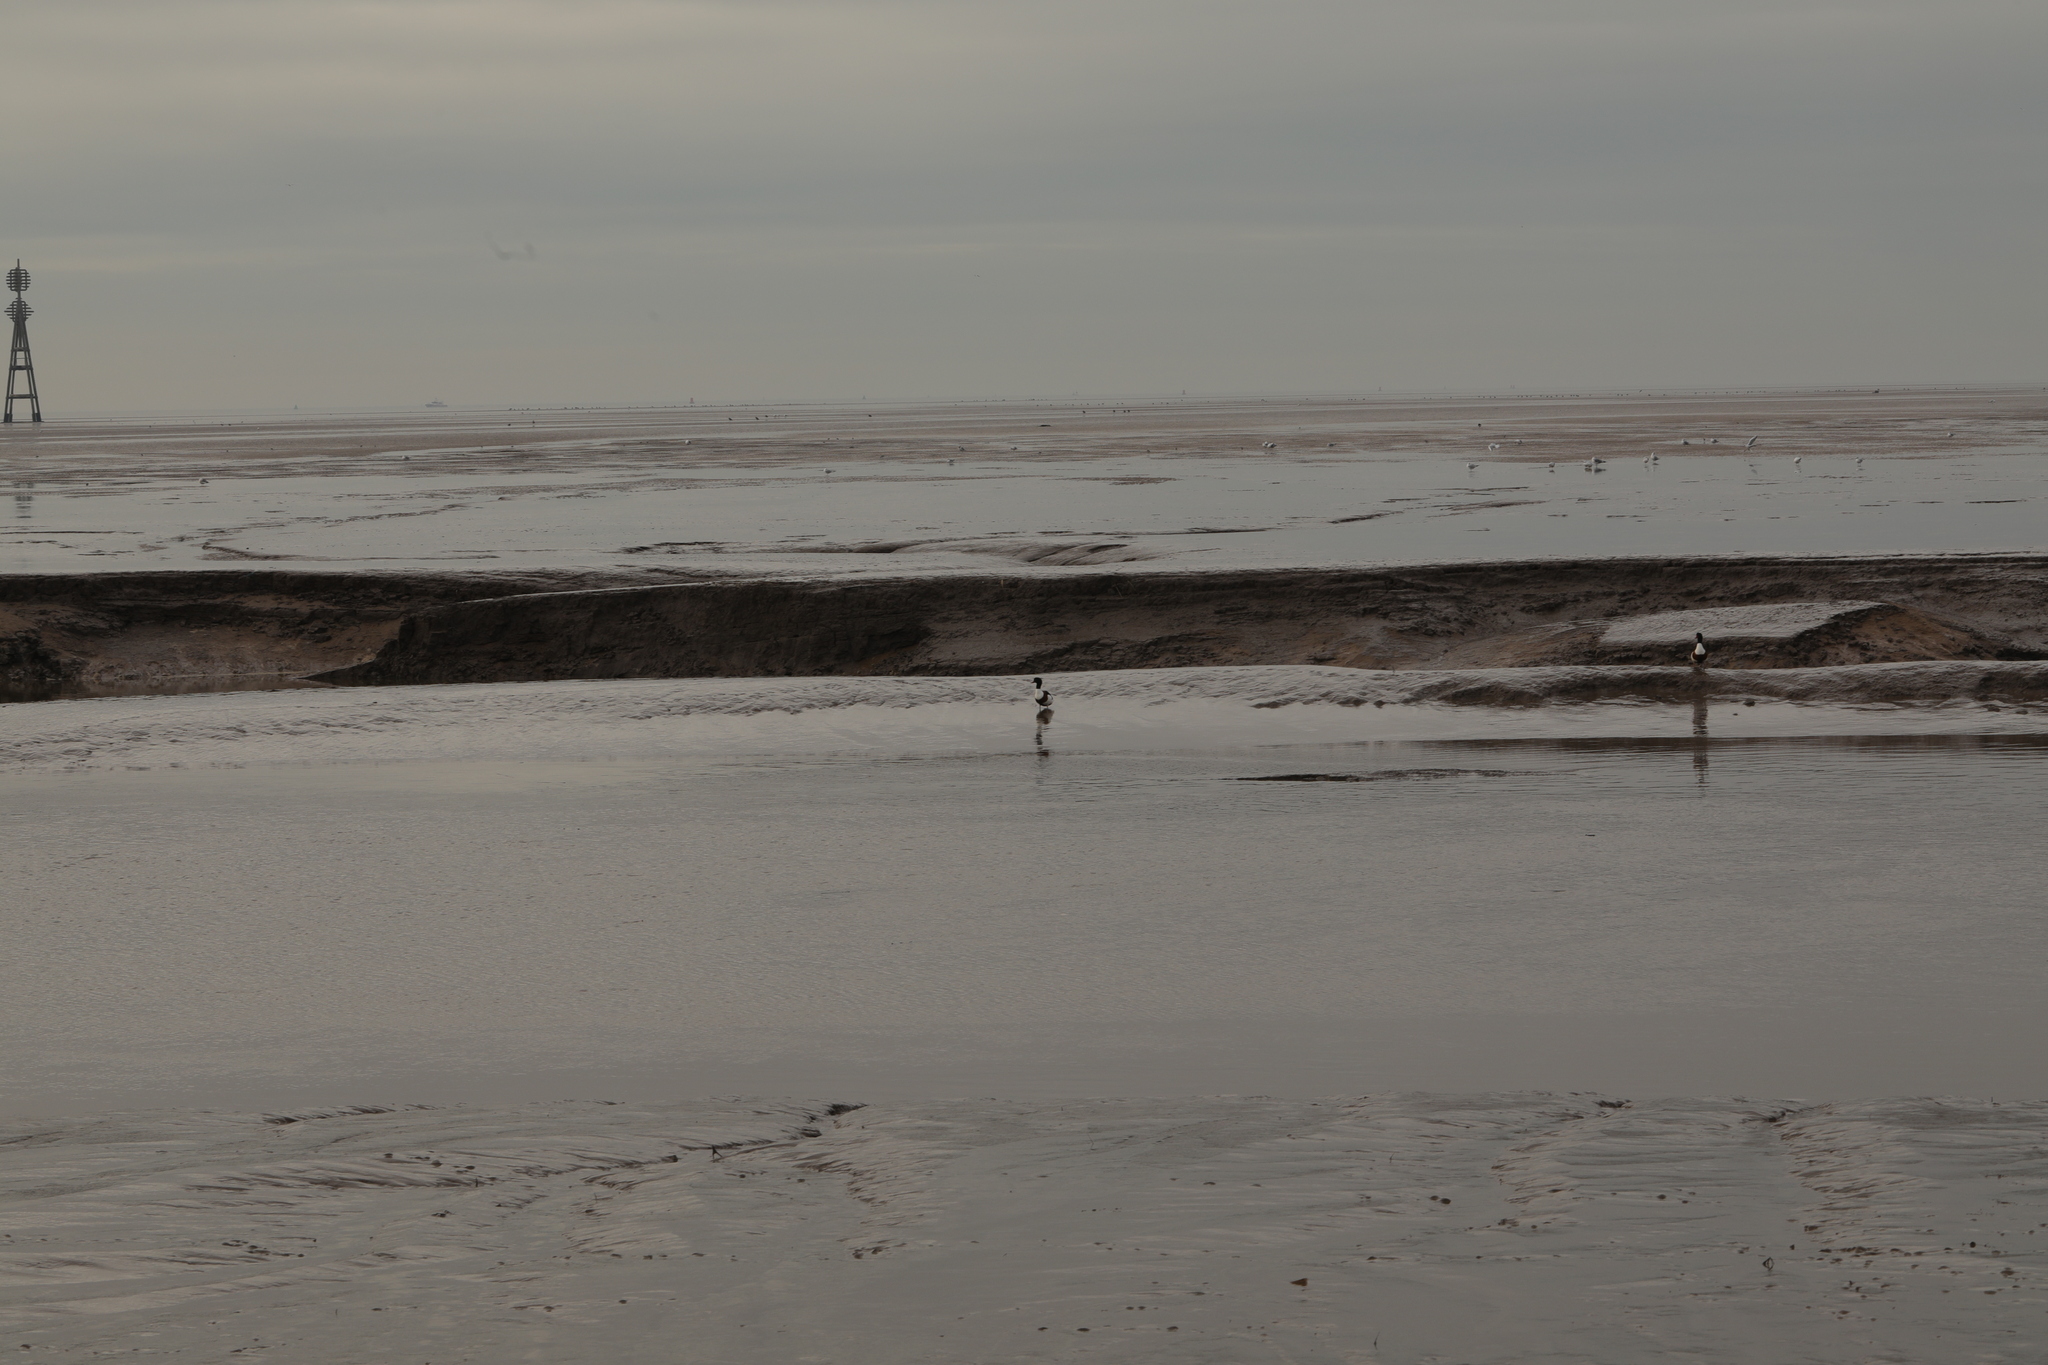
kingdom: Animalia
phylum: Chordata
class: Aves
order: Anseriformes
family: Anatidae
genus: Tadorna
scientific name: Tadorna tadorna
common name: Common shelduck
